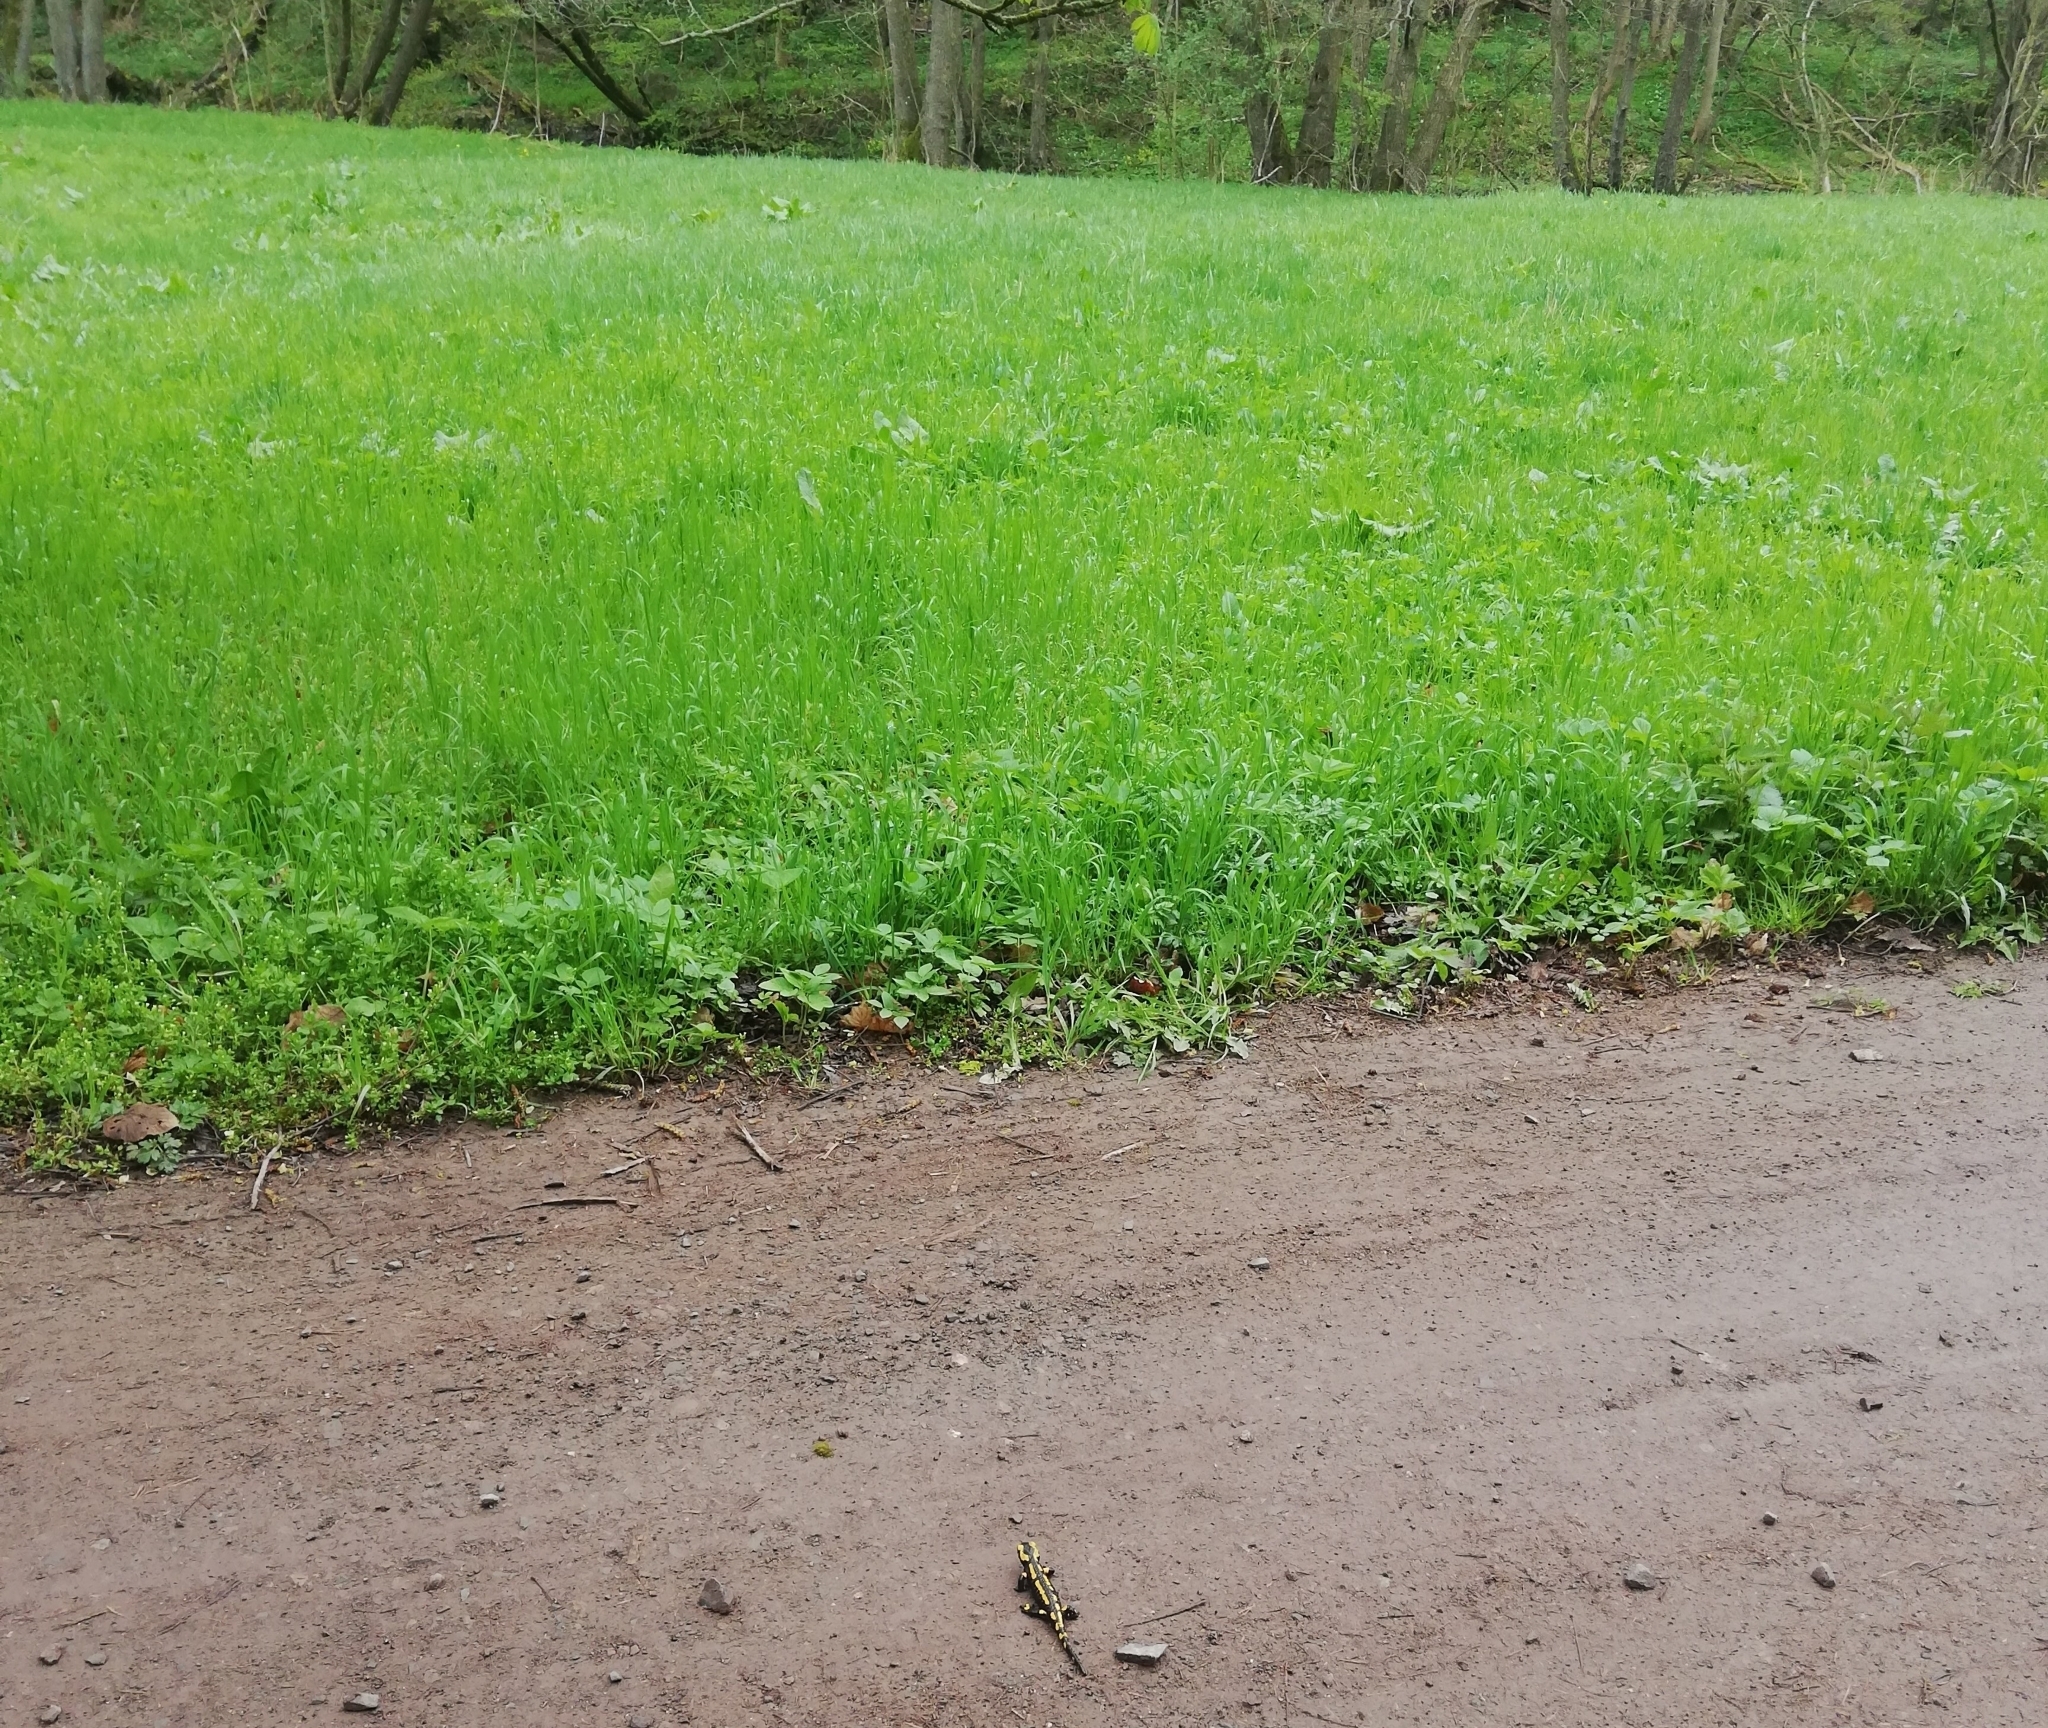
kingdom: Animalia
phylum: Chordata
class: Amphibia
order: Caudata
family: Salamandridae
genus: Salamandra
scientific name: Salamandra salamandra
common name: Fire salamander
